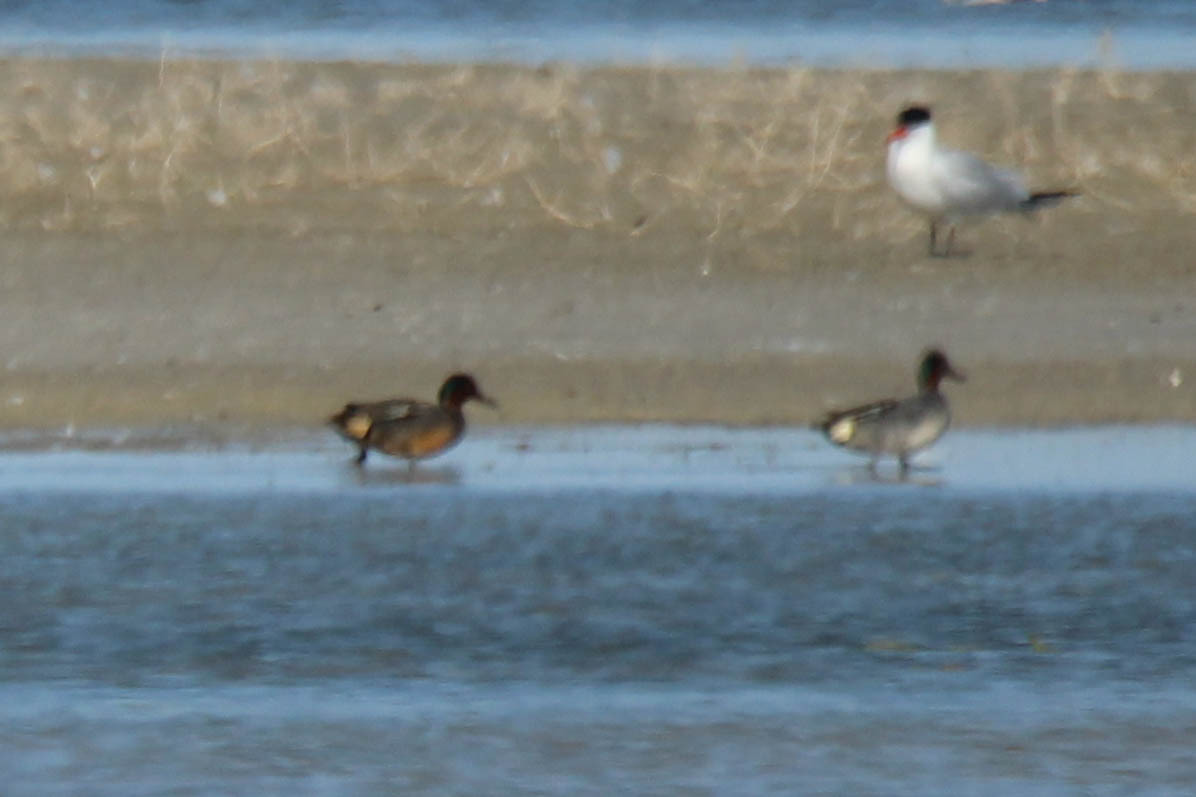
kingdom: Animalia
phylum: Chordata
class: Aves
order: Anseriformes
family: Anatidae
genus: Anas
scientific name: Anas crecca
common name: Eurasian teal
